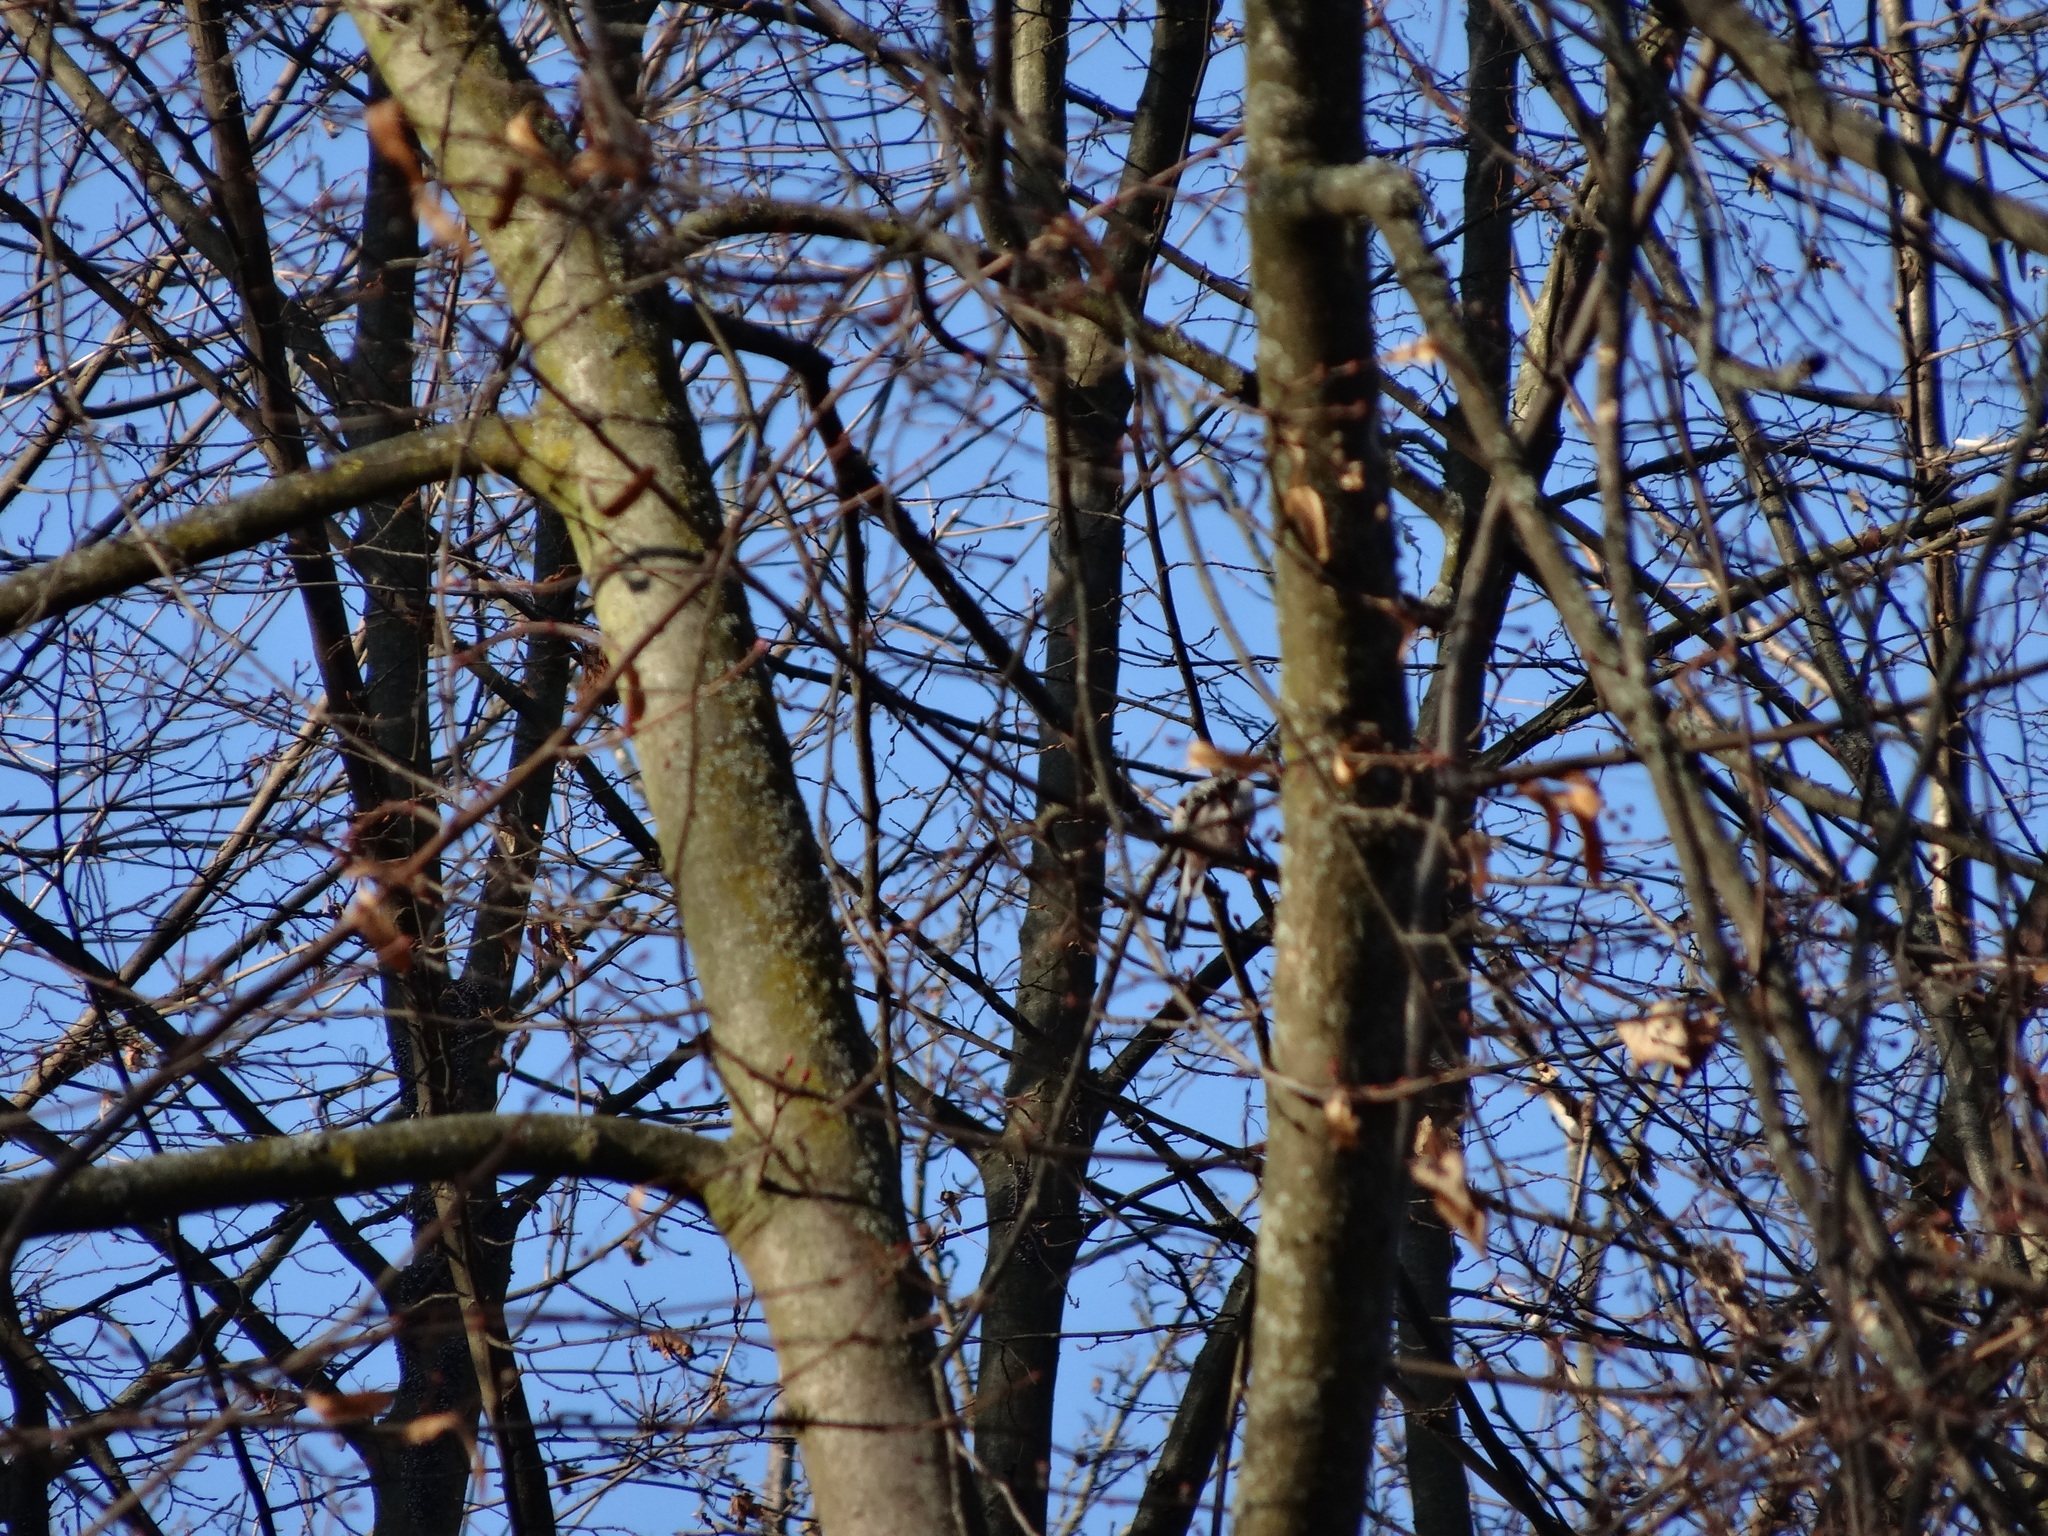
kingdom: Animalia
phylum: Chordata
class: Aves
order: Passeriformes
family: Aegithalidae
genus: Aegithalos
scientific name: Aegithalos caudatus
